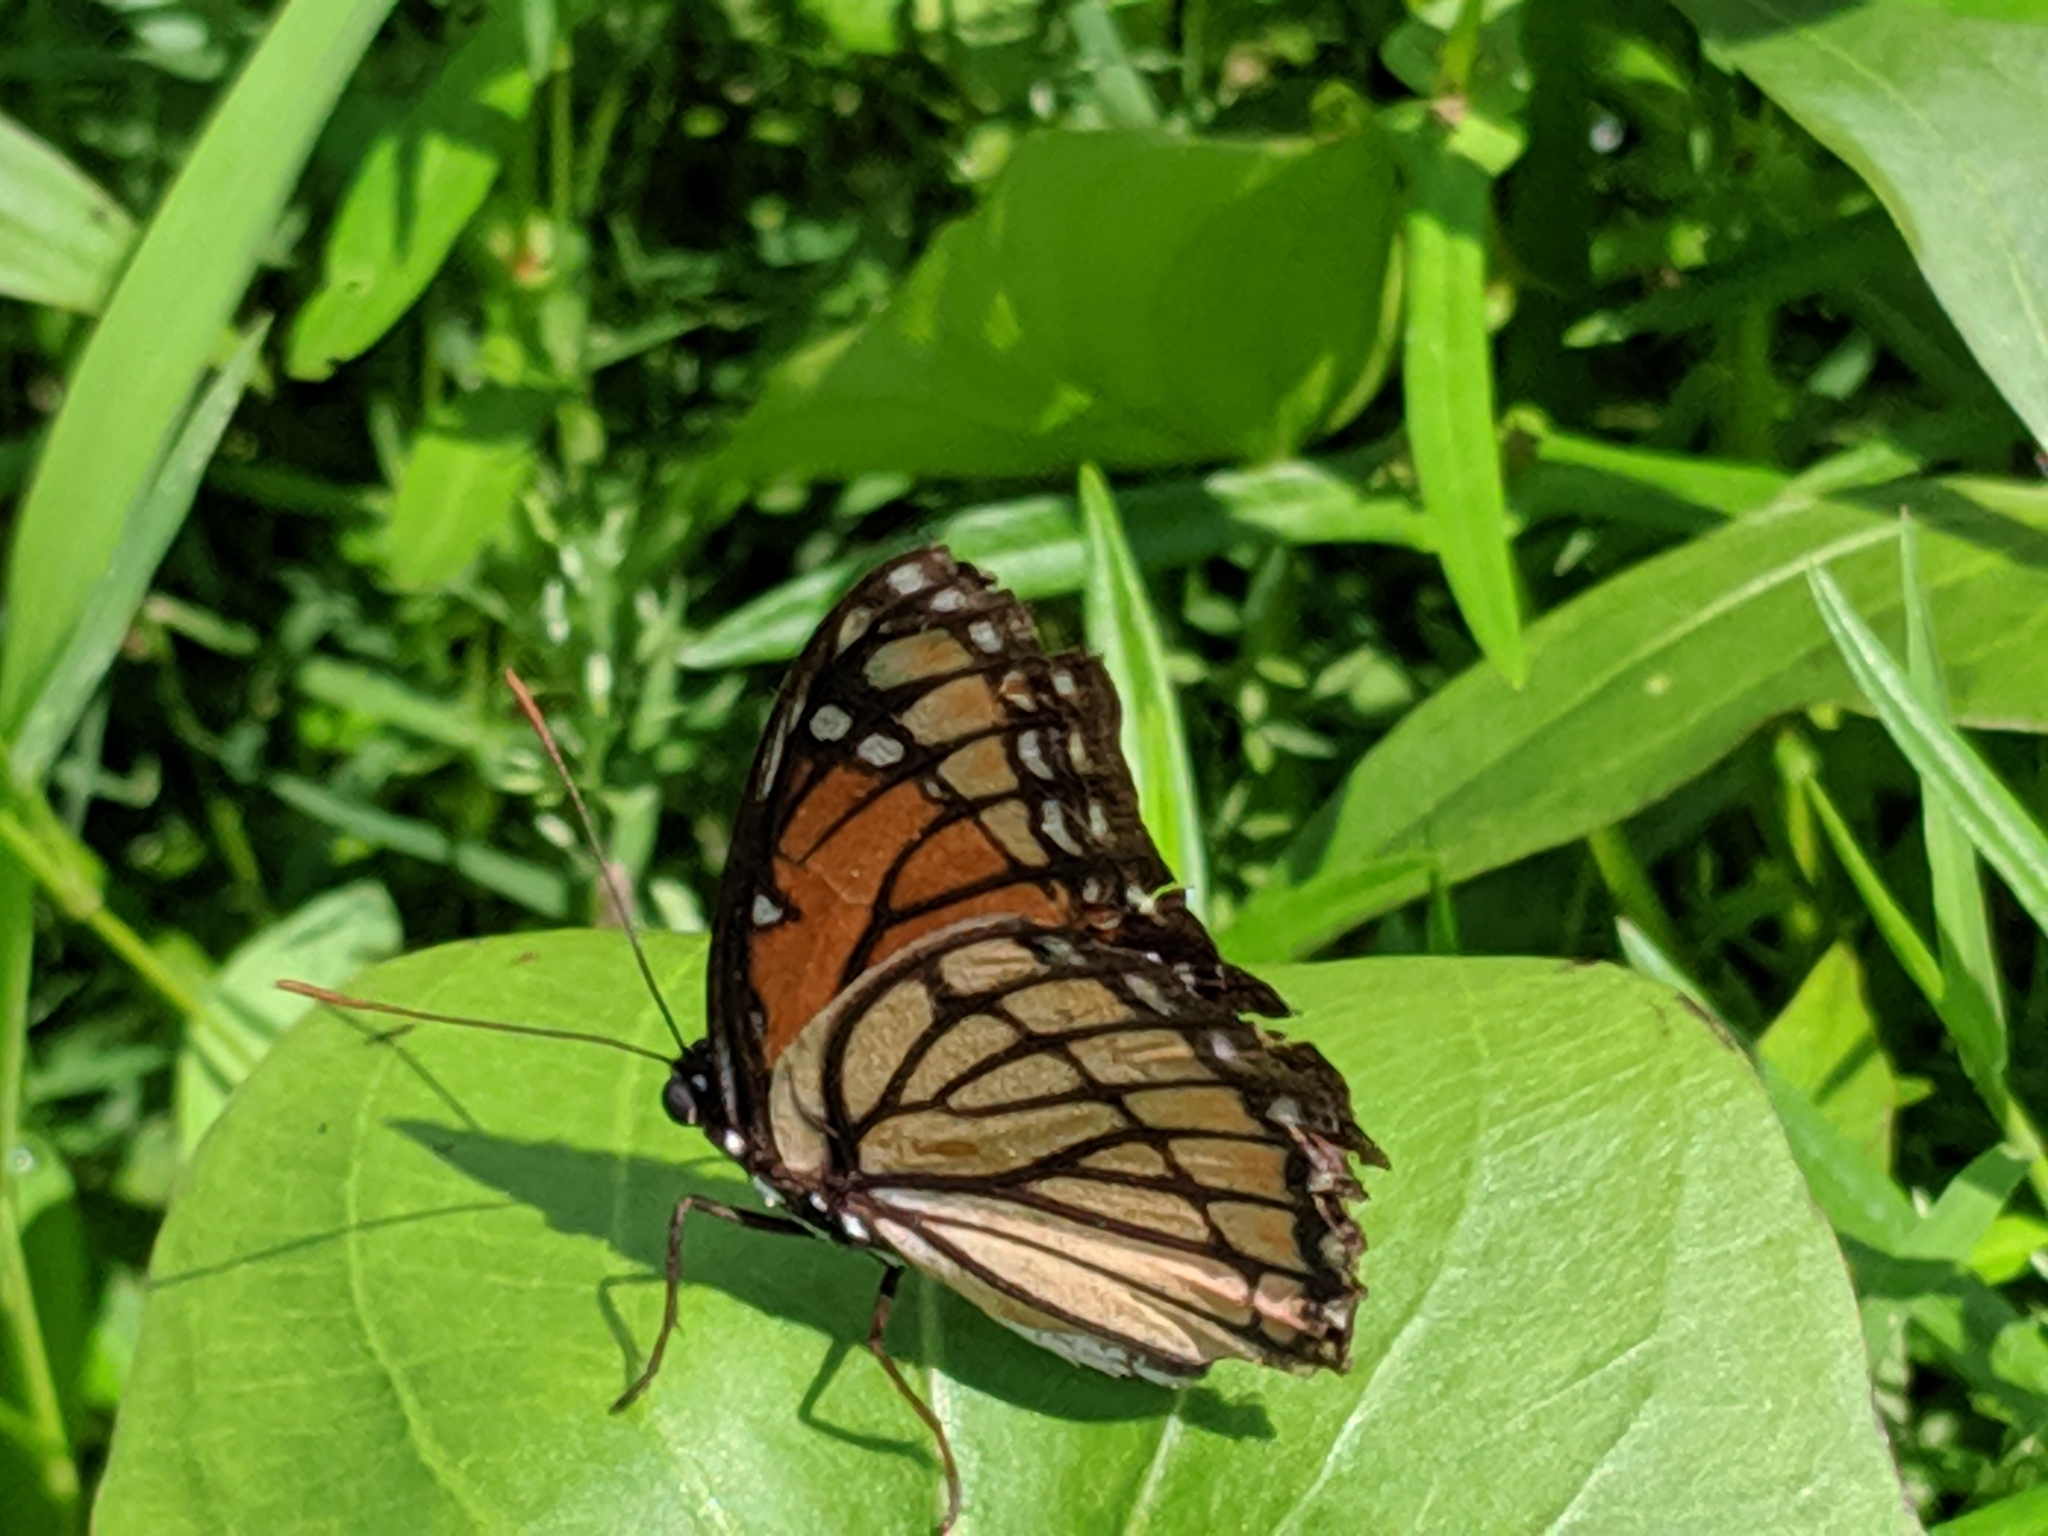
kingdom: Animalia
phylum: Arthropoda
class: Insecta
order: Lepidoptera
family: Nymphalidae
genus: Limenitis
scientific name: Limenitis archippus
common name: Viceroy
